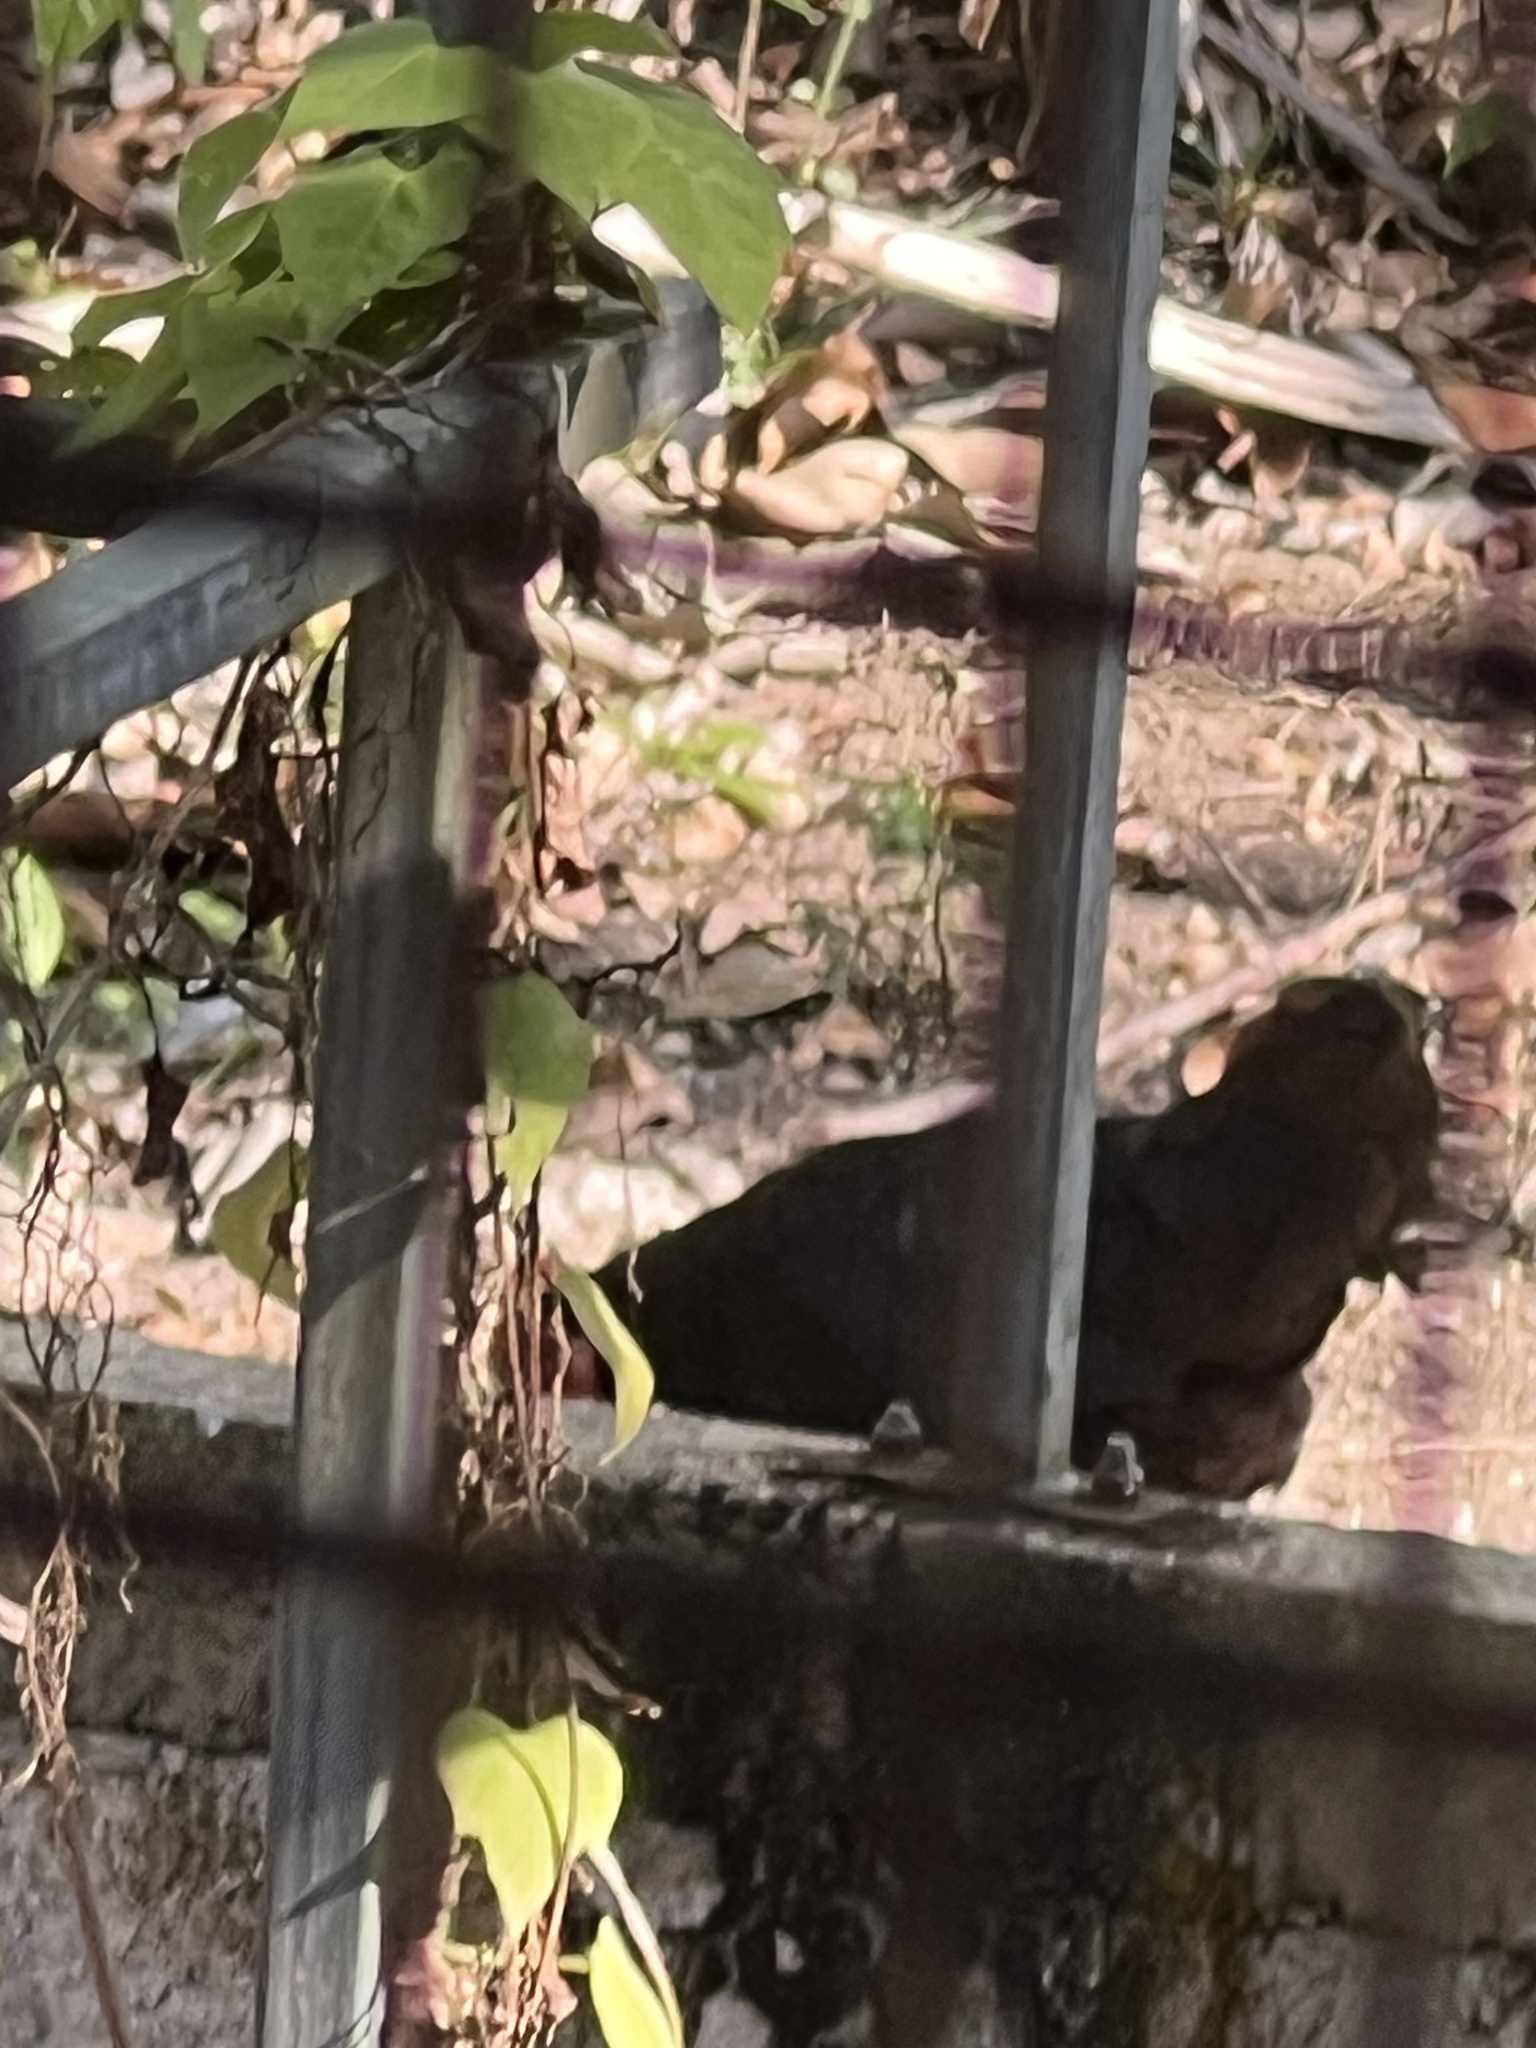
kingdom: Animalia
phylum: Chordata
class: Aves
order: Galliformes
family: Phasianidae
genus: Gallus
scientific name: Gallus gallus
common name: Red junglefowl
